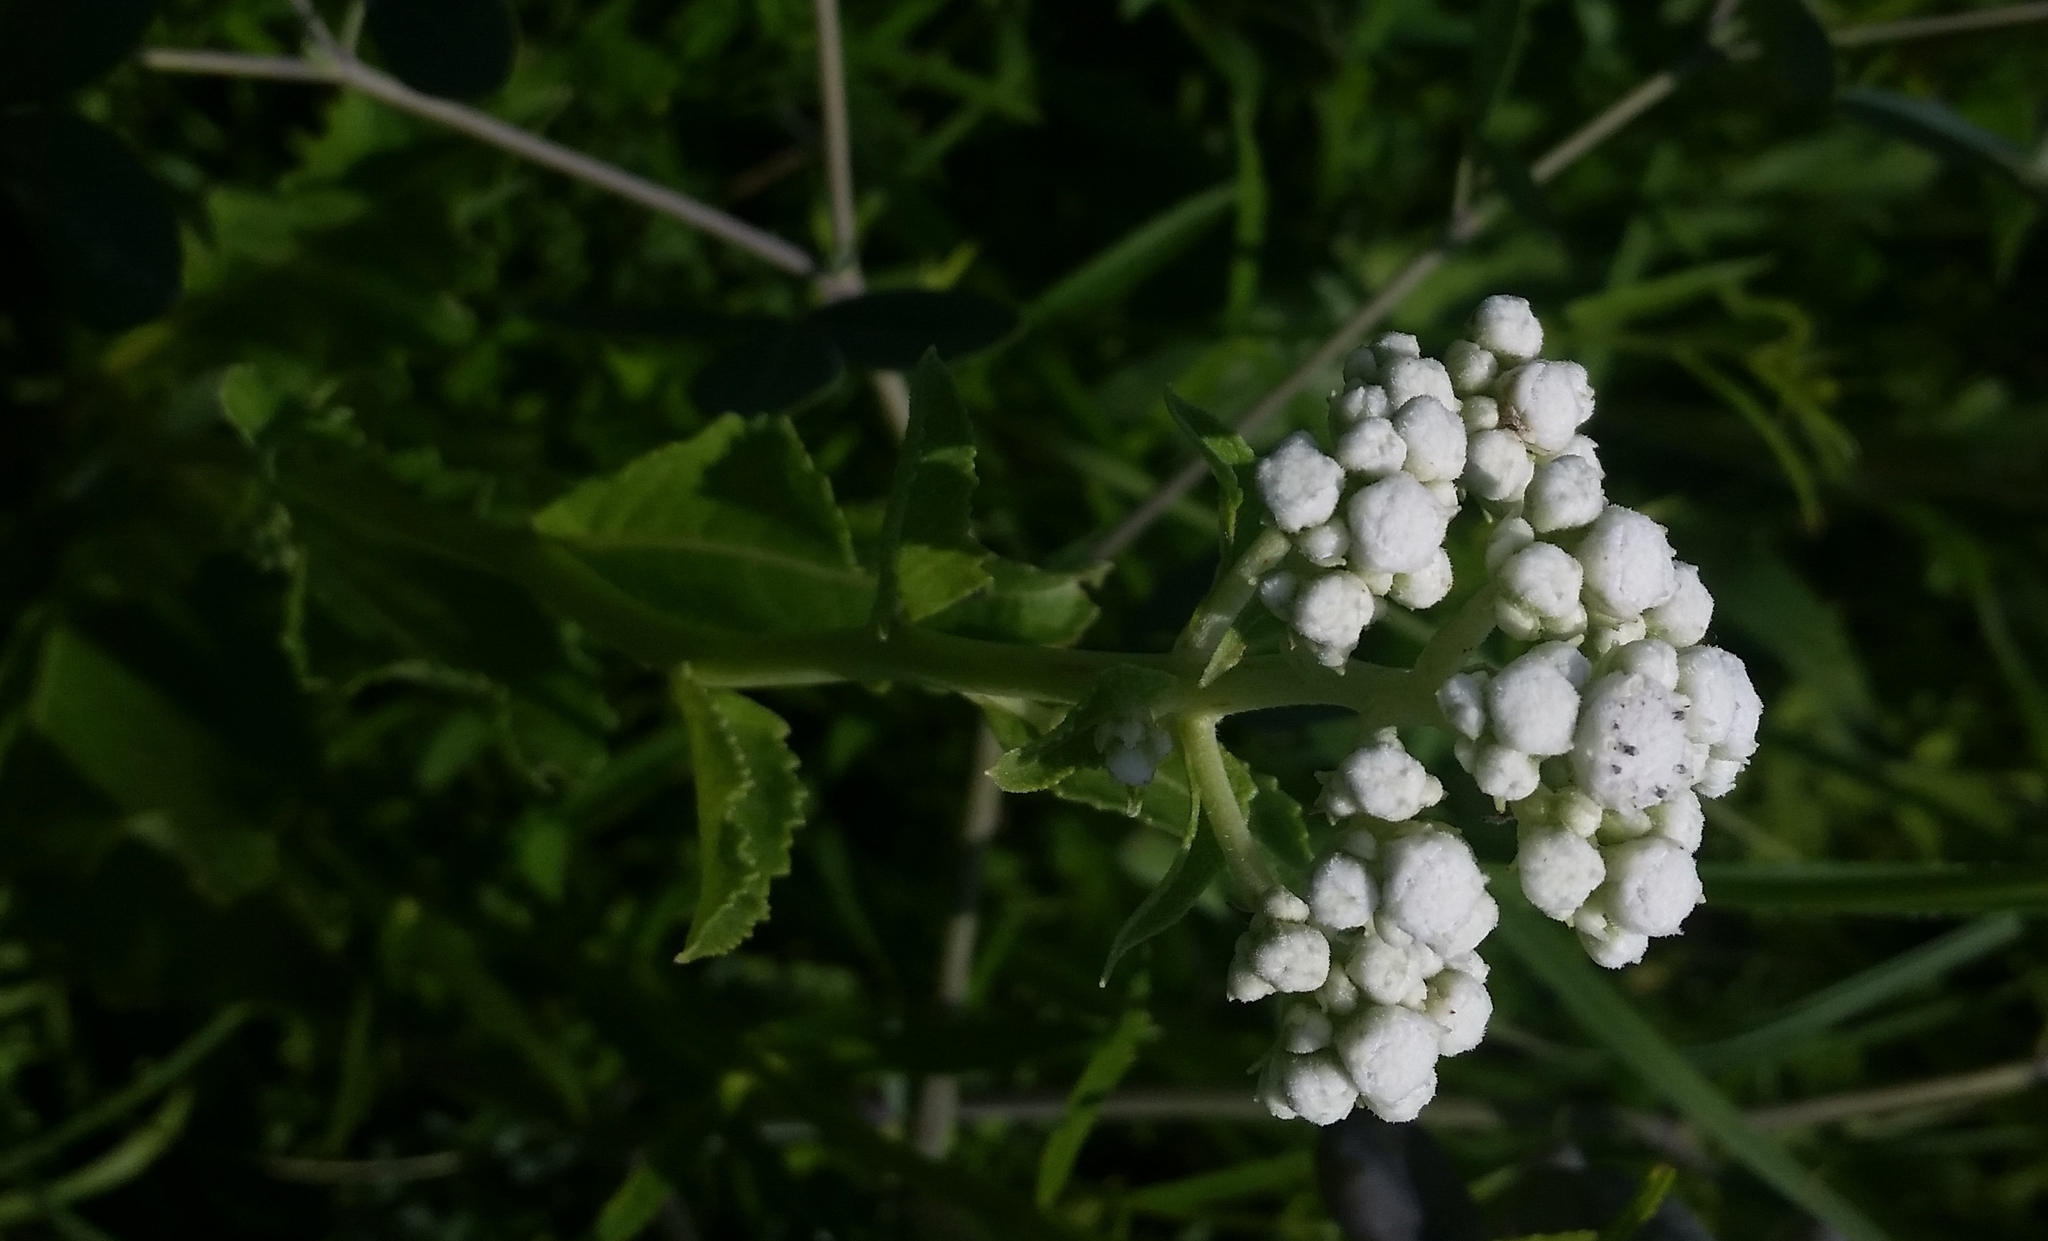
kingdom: Plantae
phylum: Tracheophyta
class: Magnoliopsida
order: Asterales
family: Asteraceae
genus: Parthenium
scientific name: Parthenium integrifolium
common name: American feverfew
